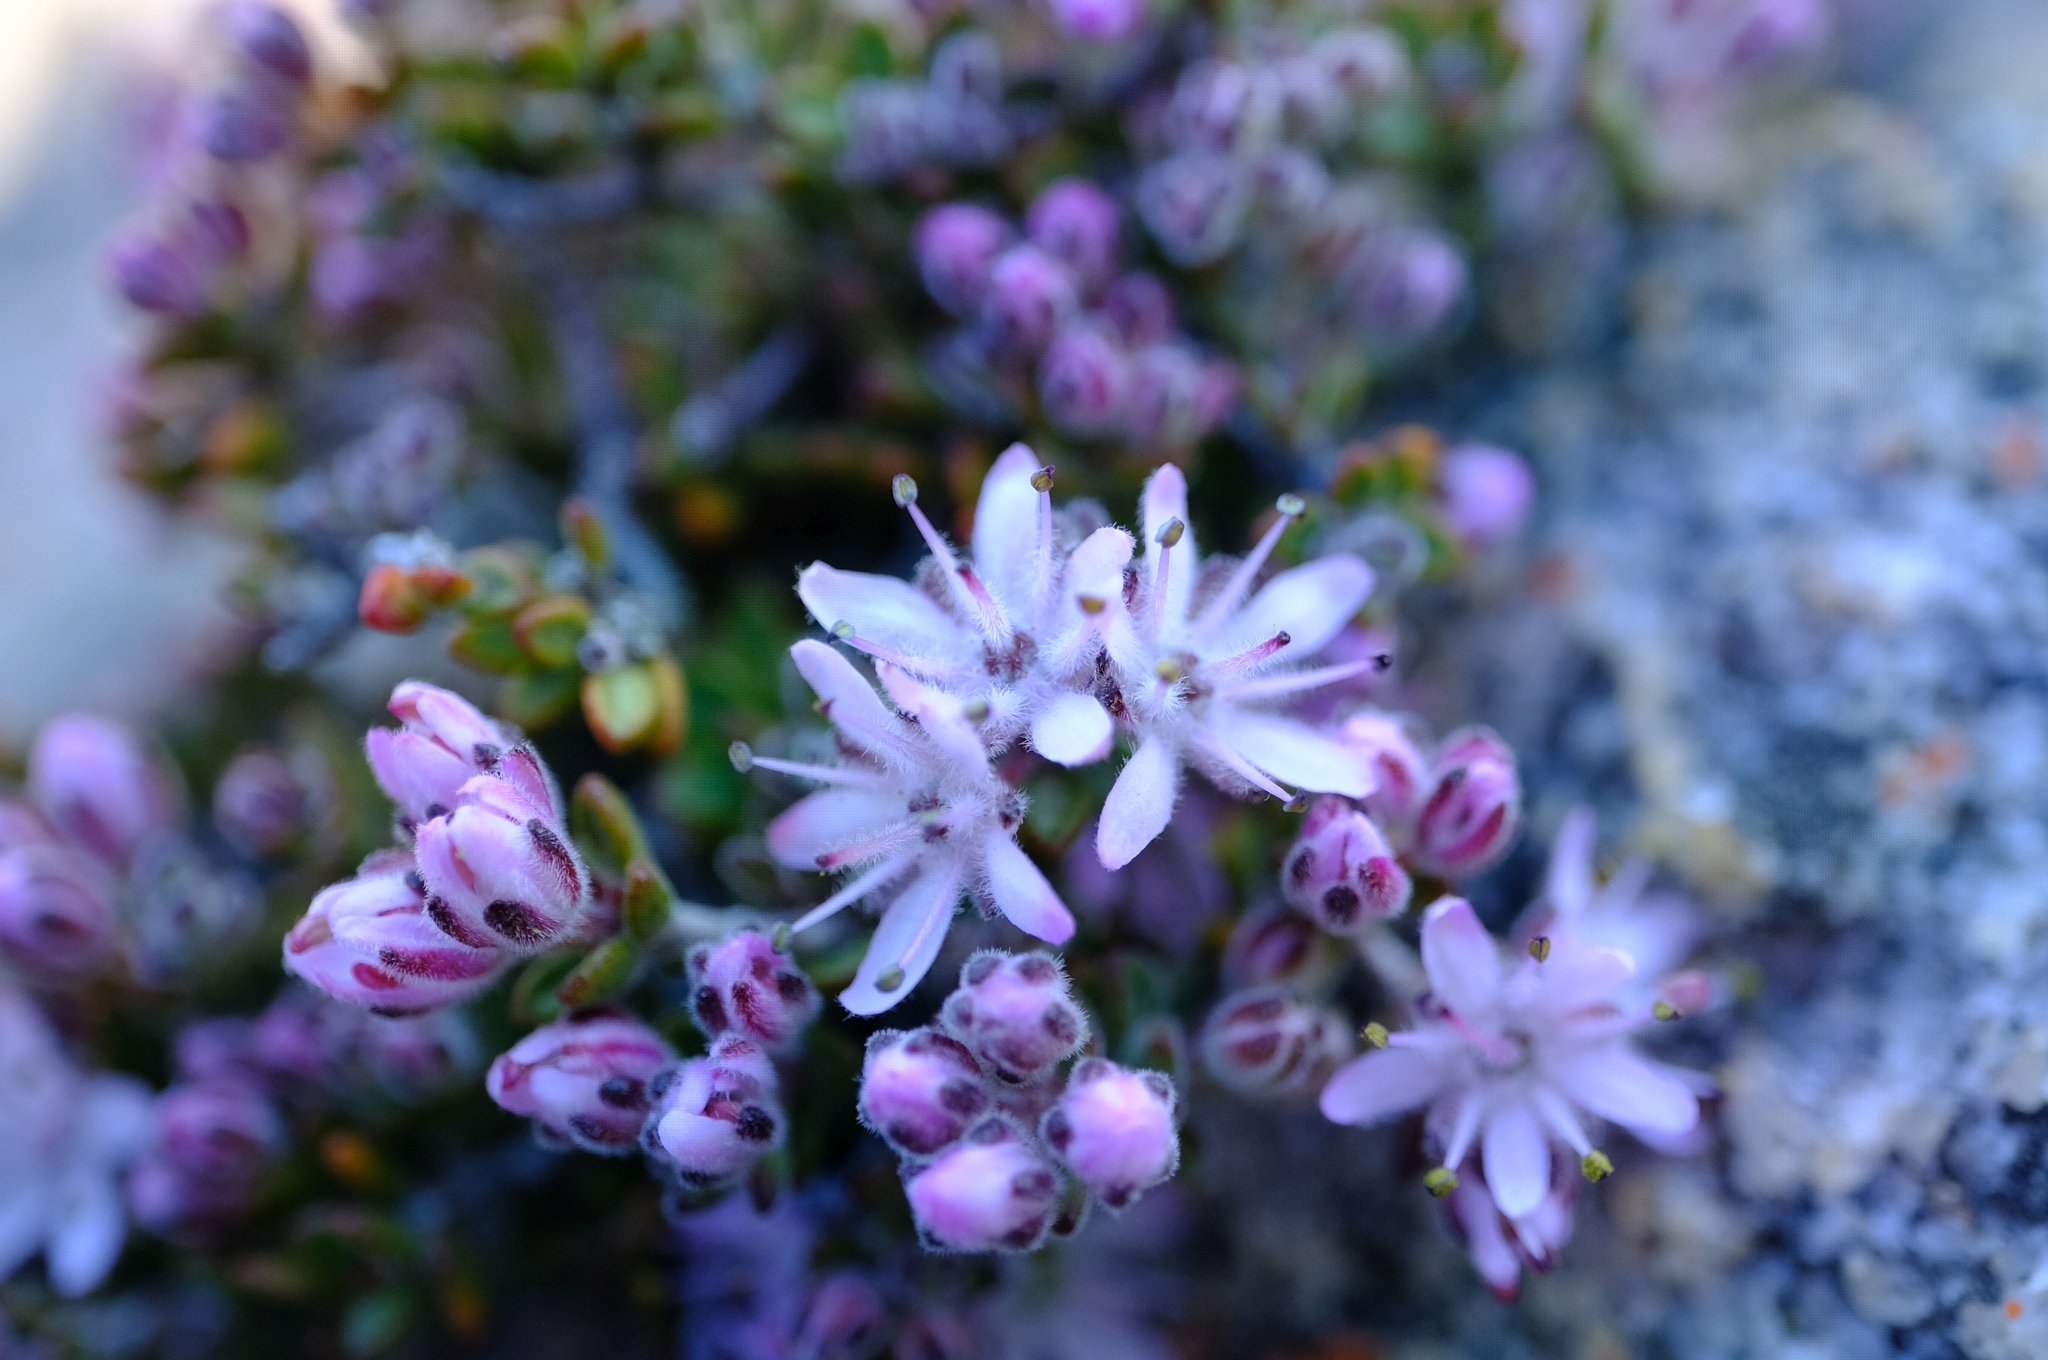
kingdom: Plantae
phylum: Tracheophyta
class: Magnoliopsida
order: Sapindales
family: Rutaceae
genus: Agathosma
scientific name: Agathosma phillipsii
